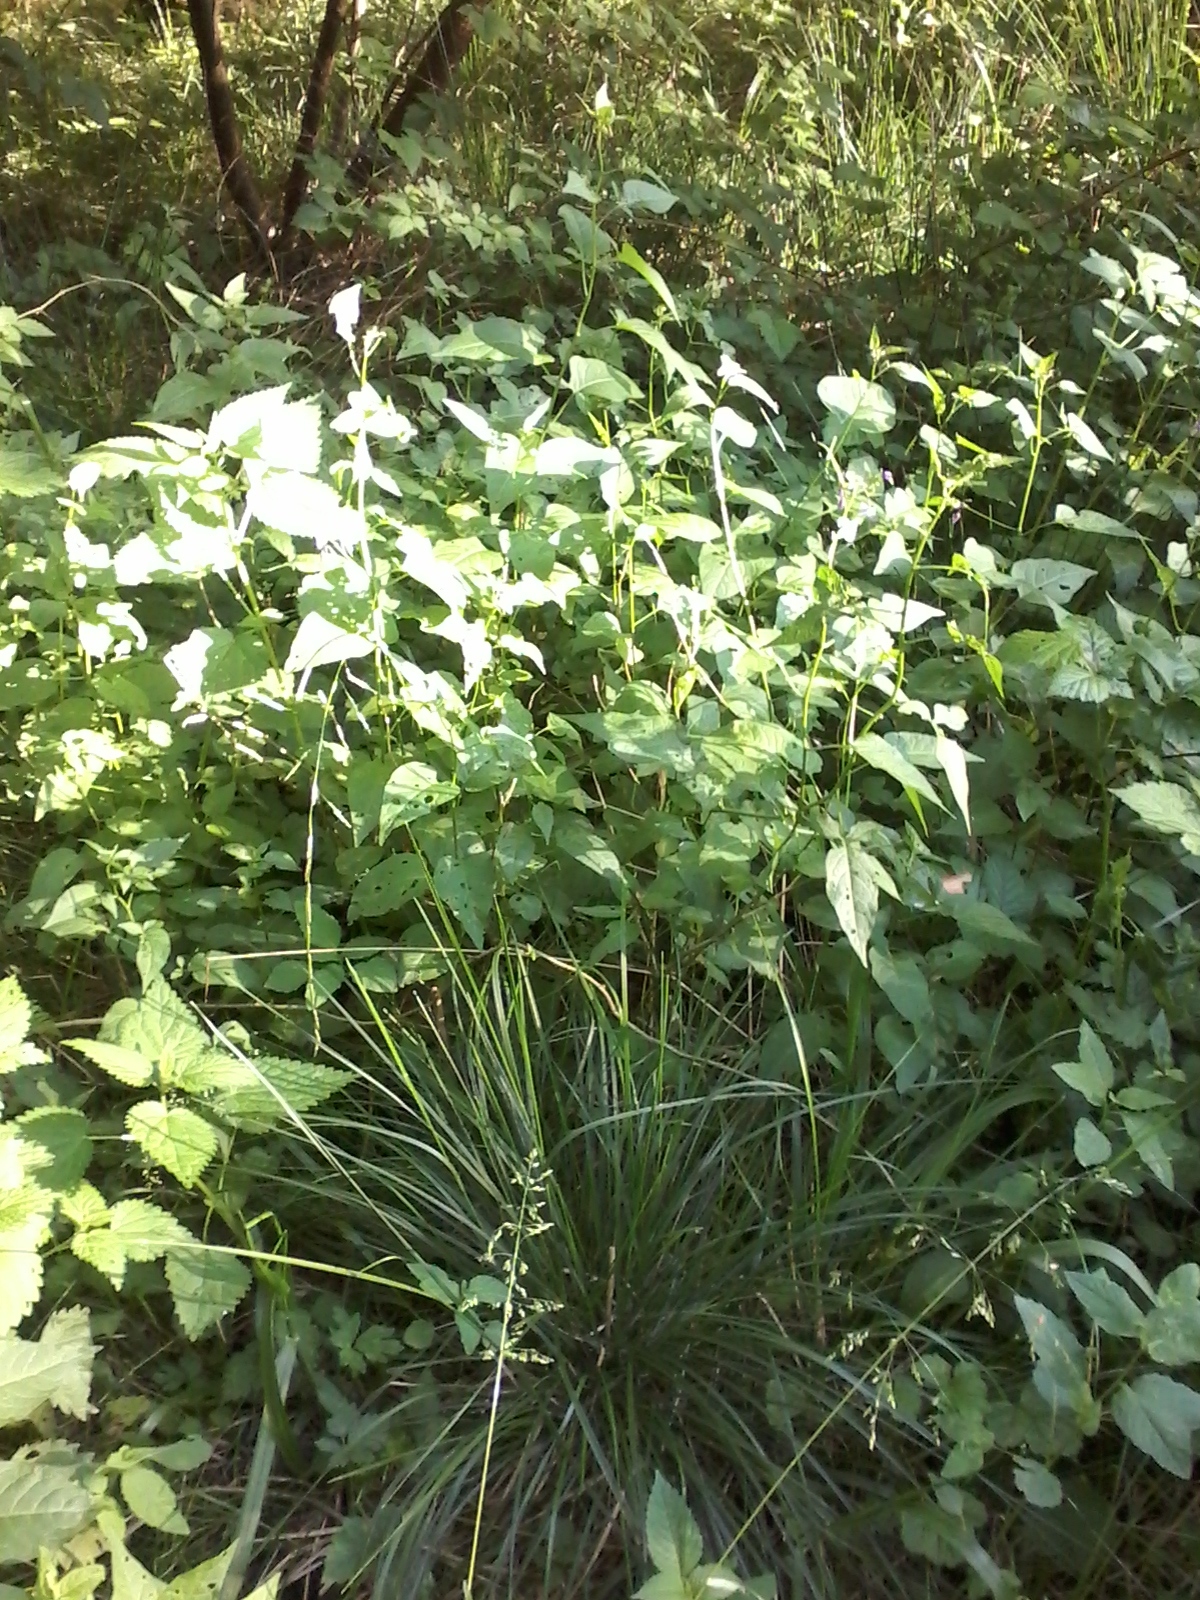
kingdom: Plantae
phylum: Tracheophyta
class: Magnoliopsida
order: Solanales
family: Solanaceae
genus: Solanum
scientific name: Solanum dulcamara
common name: Climbing nightshade
